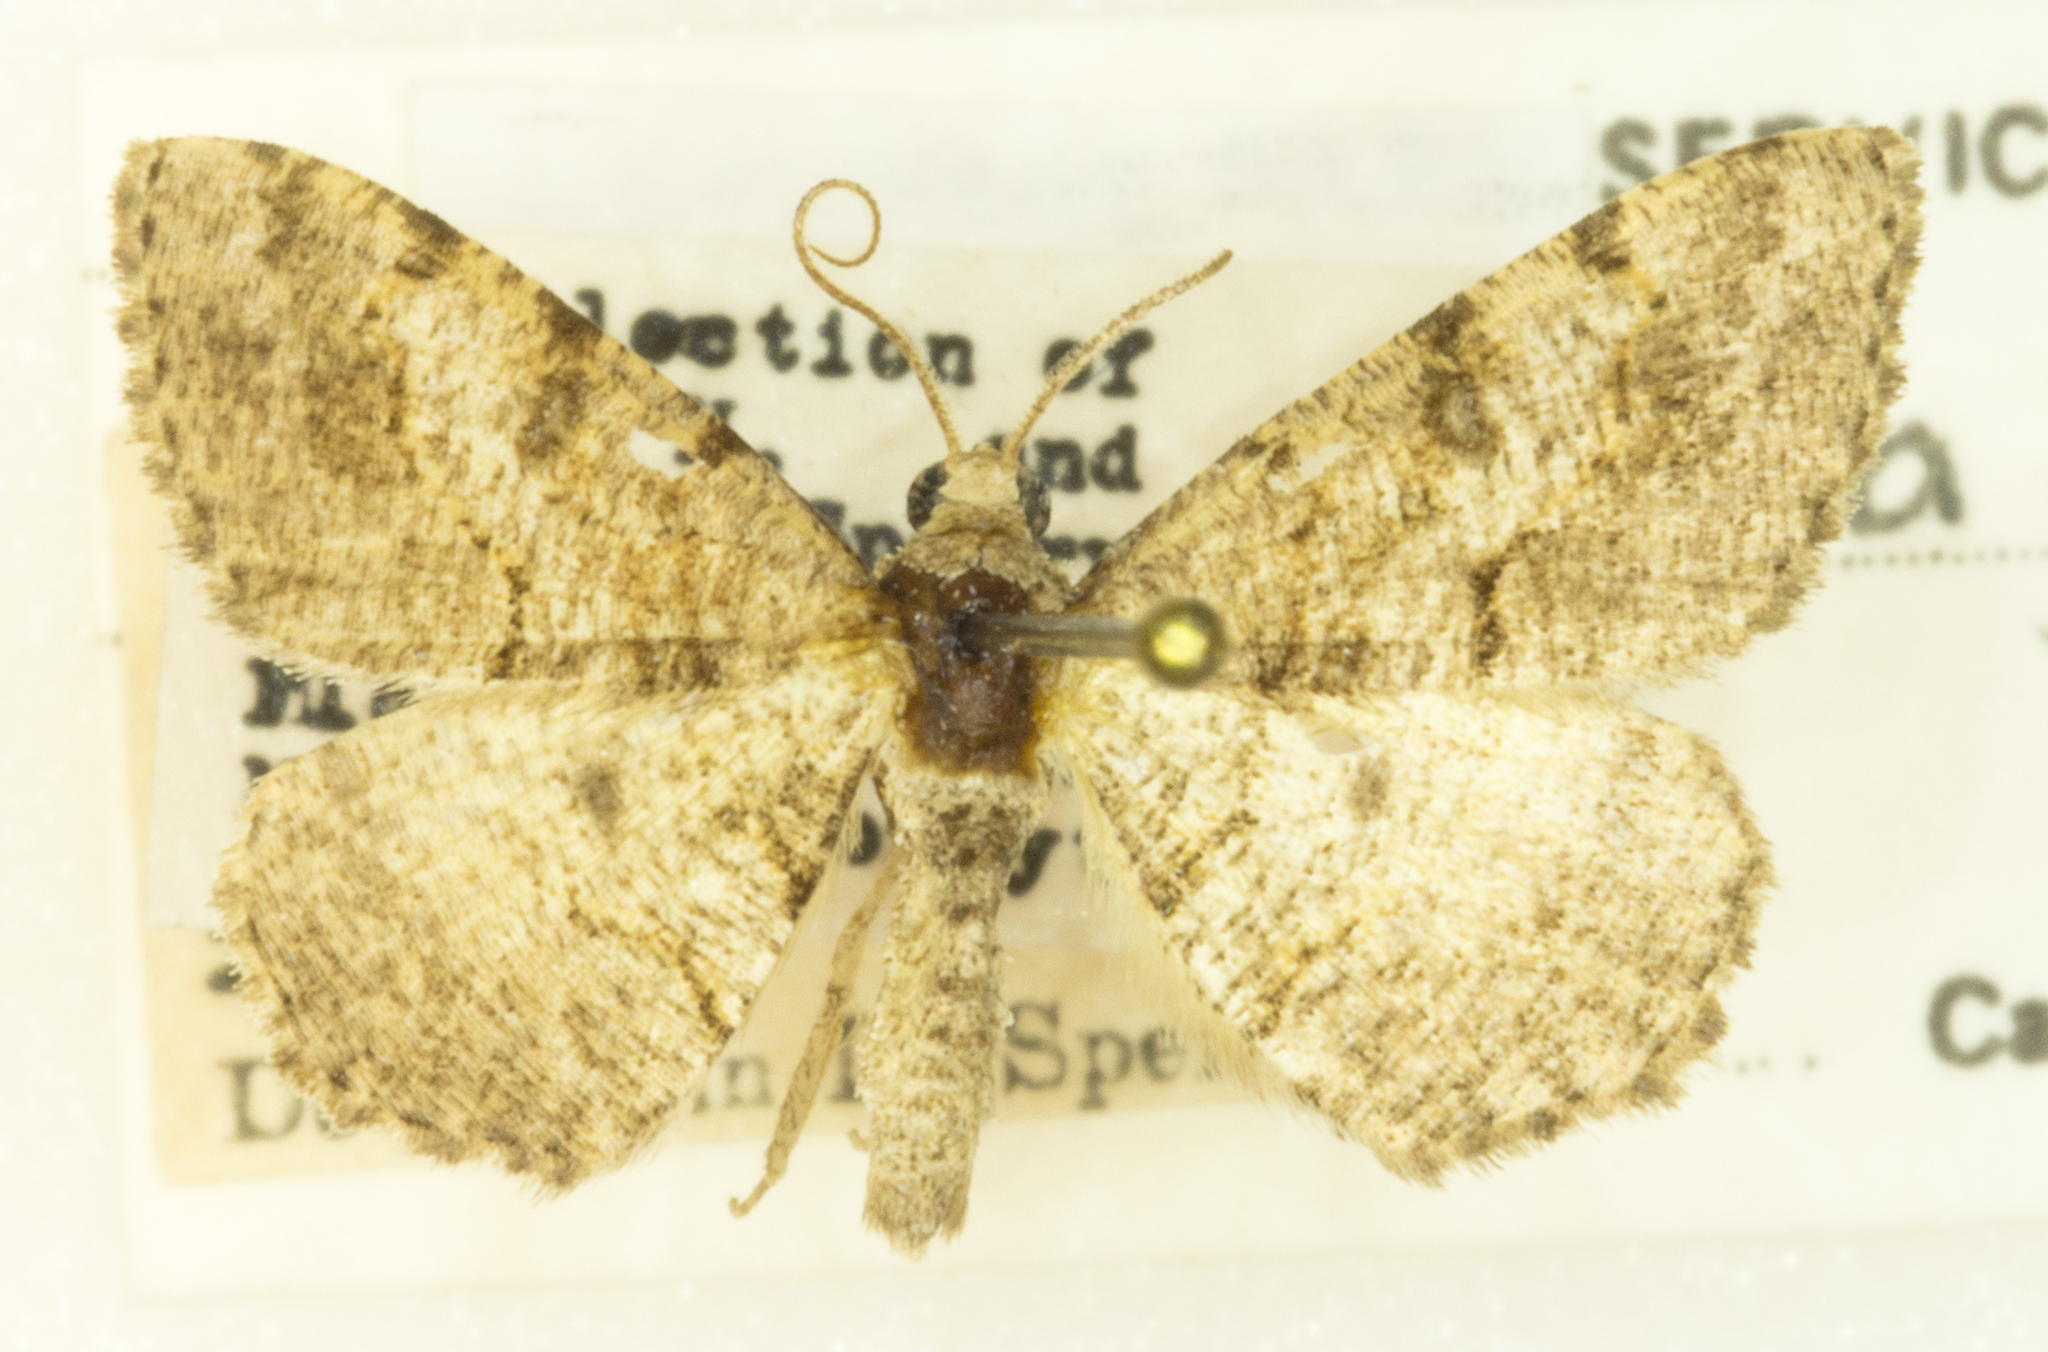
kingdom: Animalia
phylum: Arthropoda
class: Insecta
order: Lepidoptera
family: Geometridae
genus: Digrammia
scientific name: Digrammia gnophosaria
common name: Hollow-spotted angle
